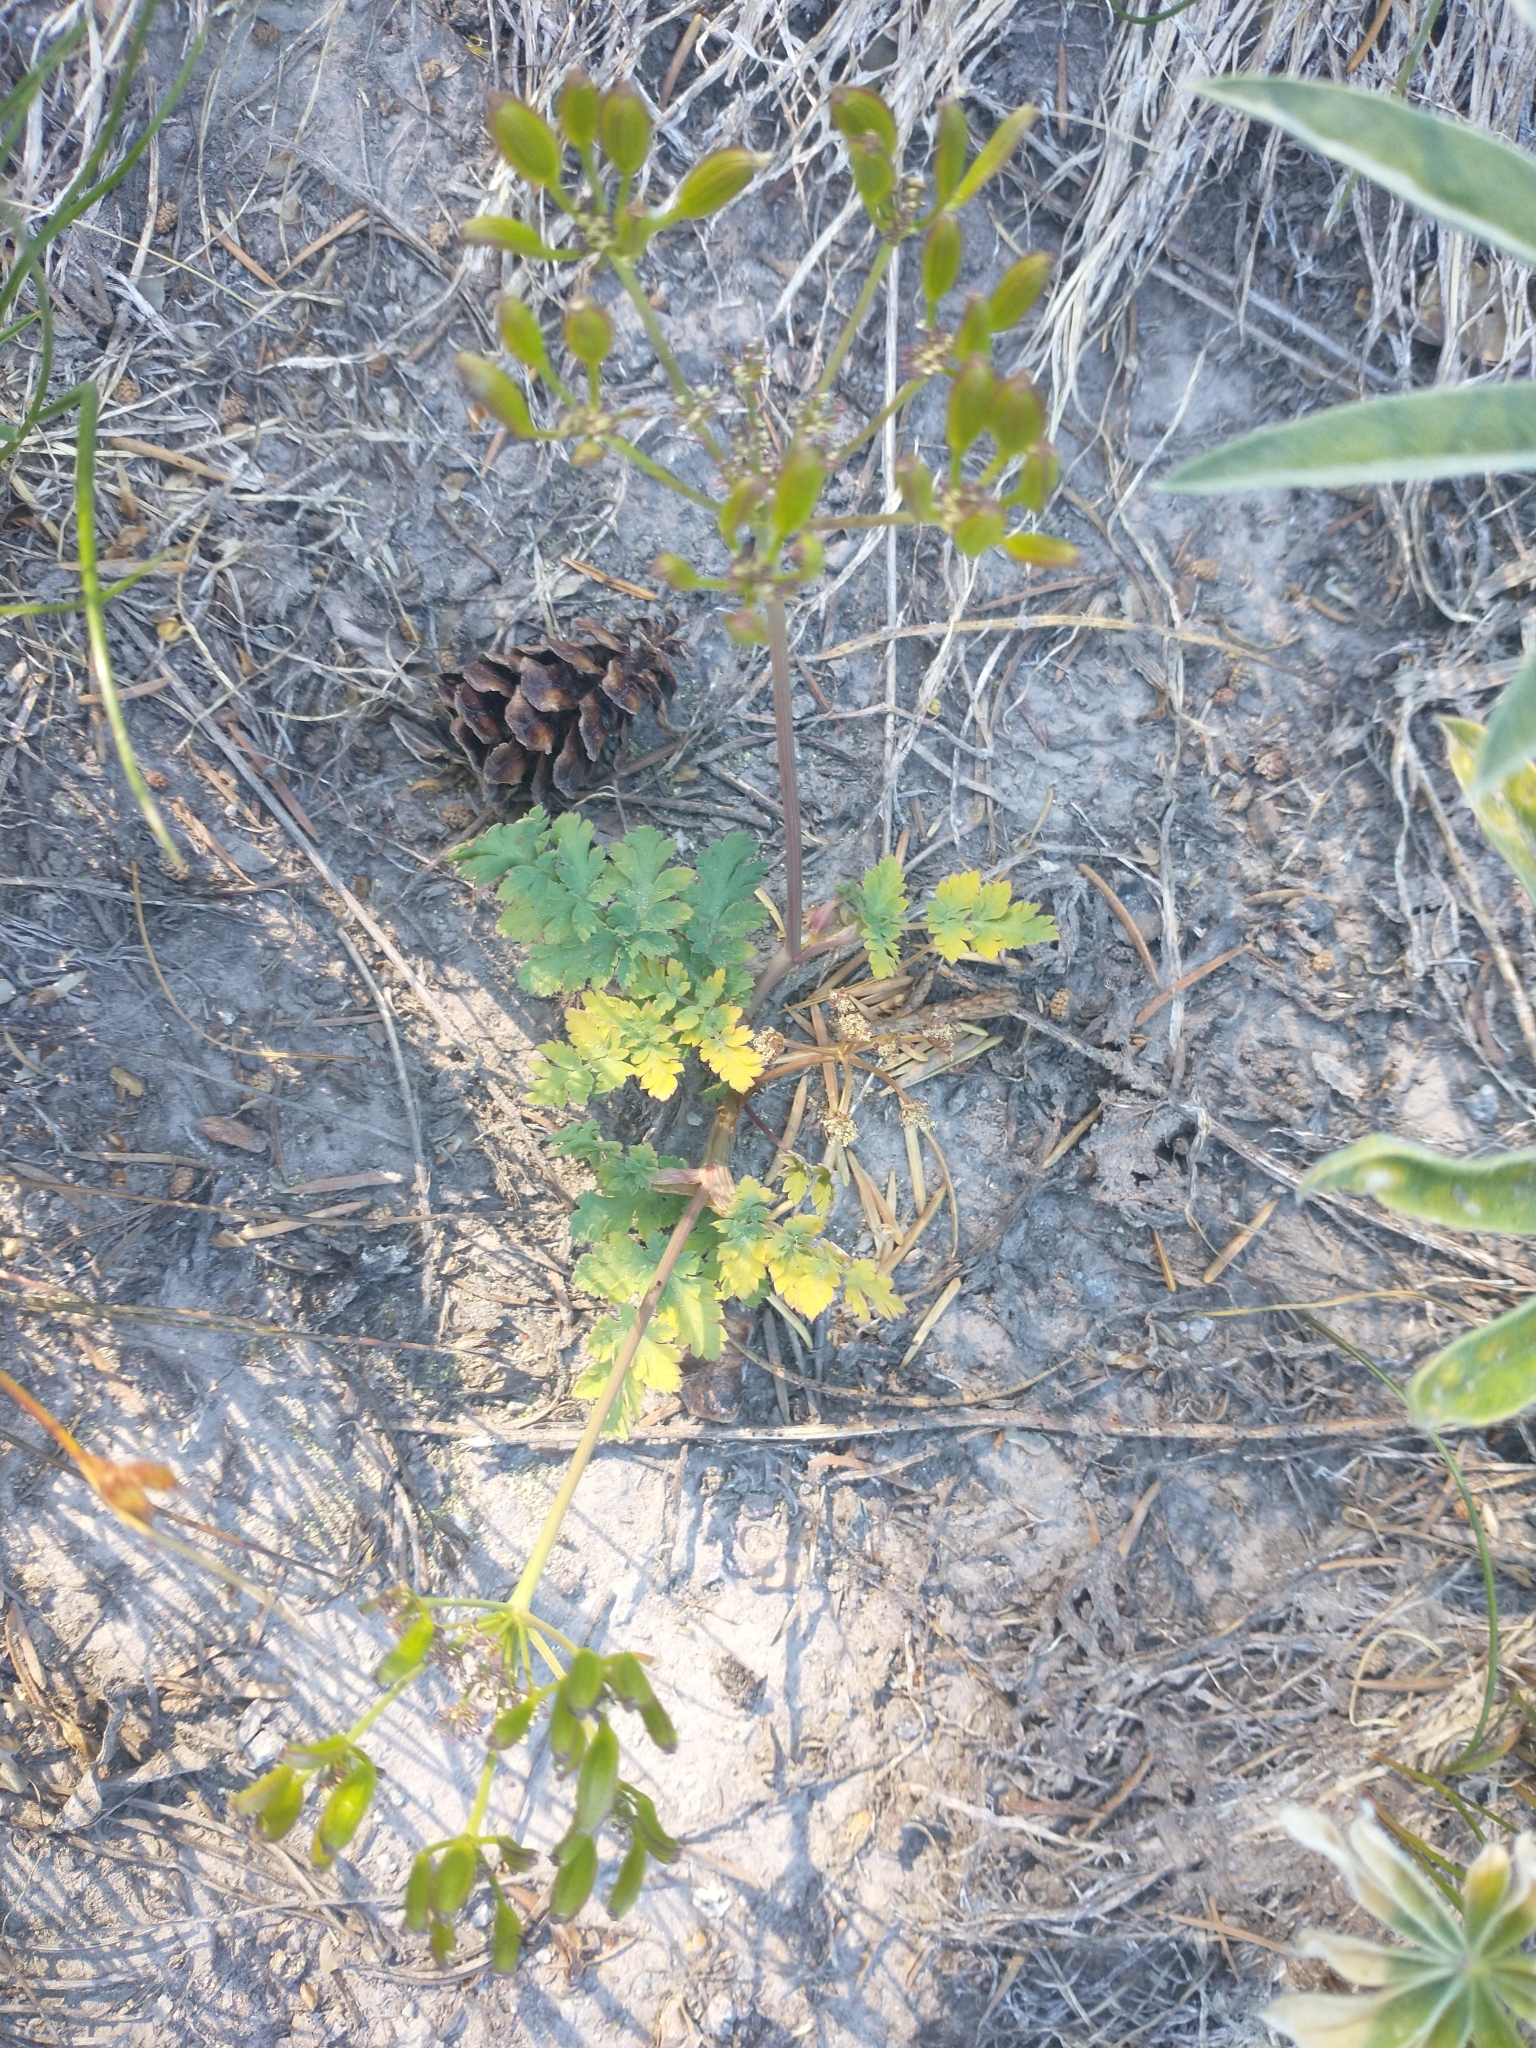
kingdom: Plantae
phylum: Tracheophyta
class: Magnoliopsida
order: Apiales
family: Apiaceae
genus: Lomatium
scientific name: Lomatium martindalei
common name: Cascade desert-parsley
